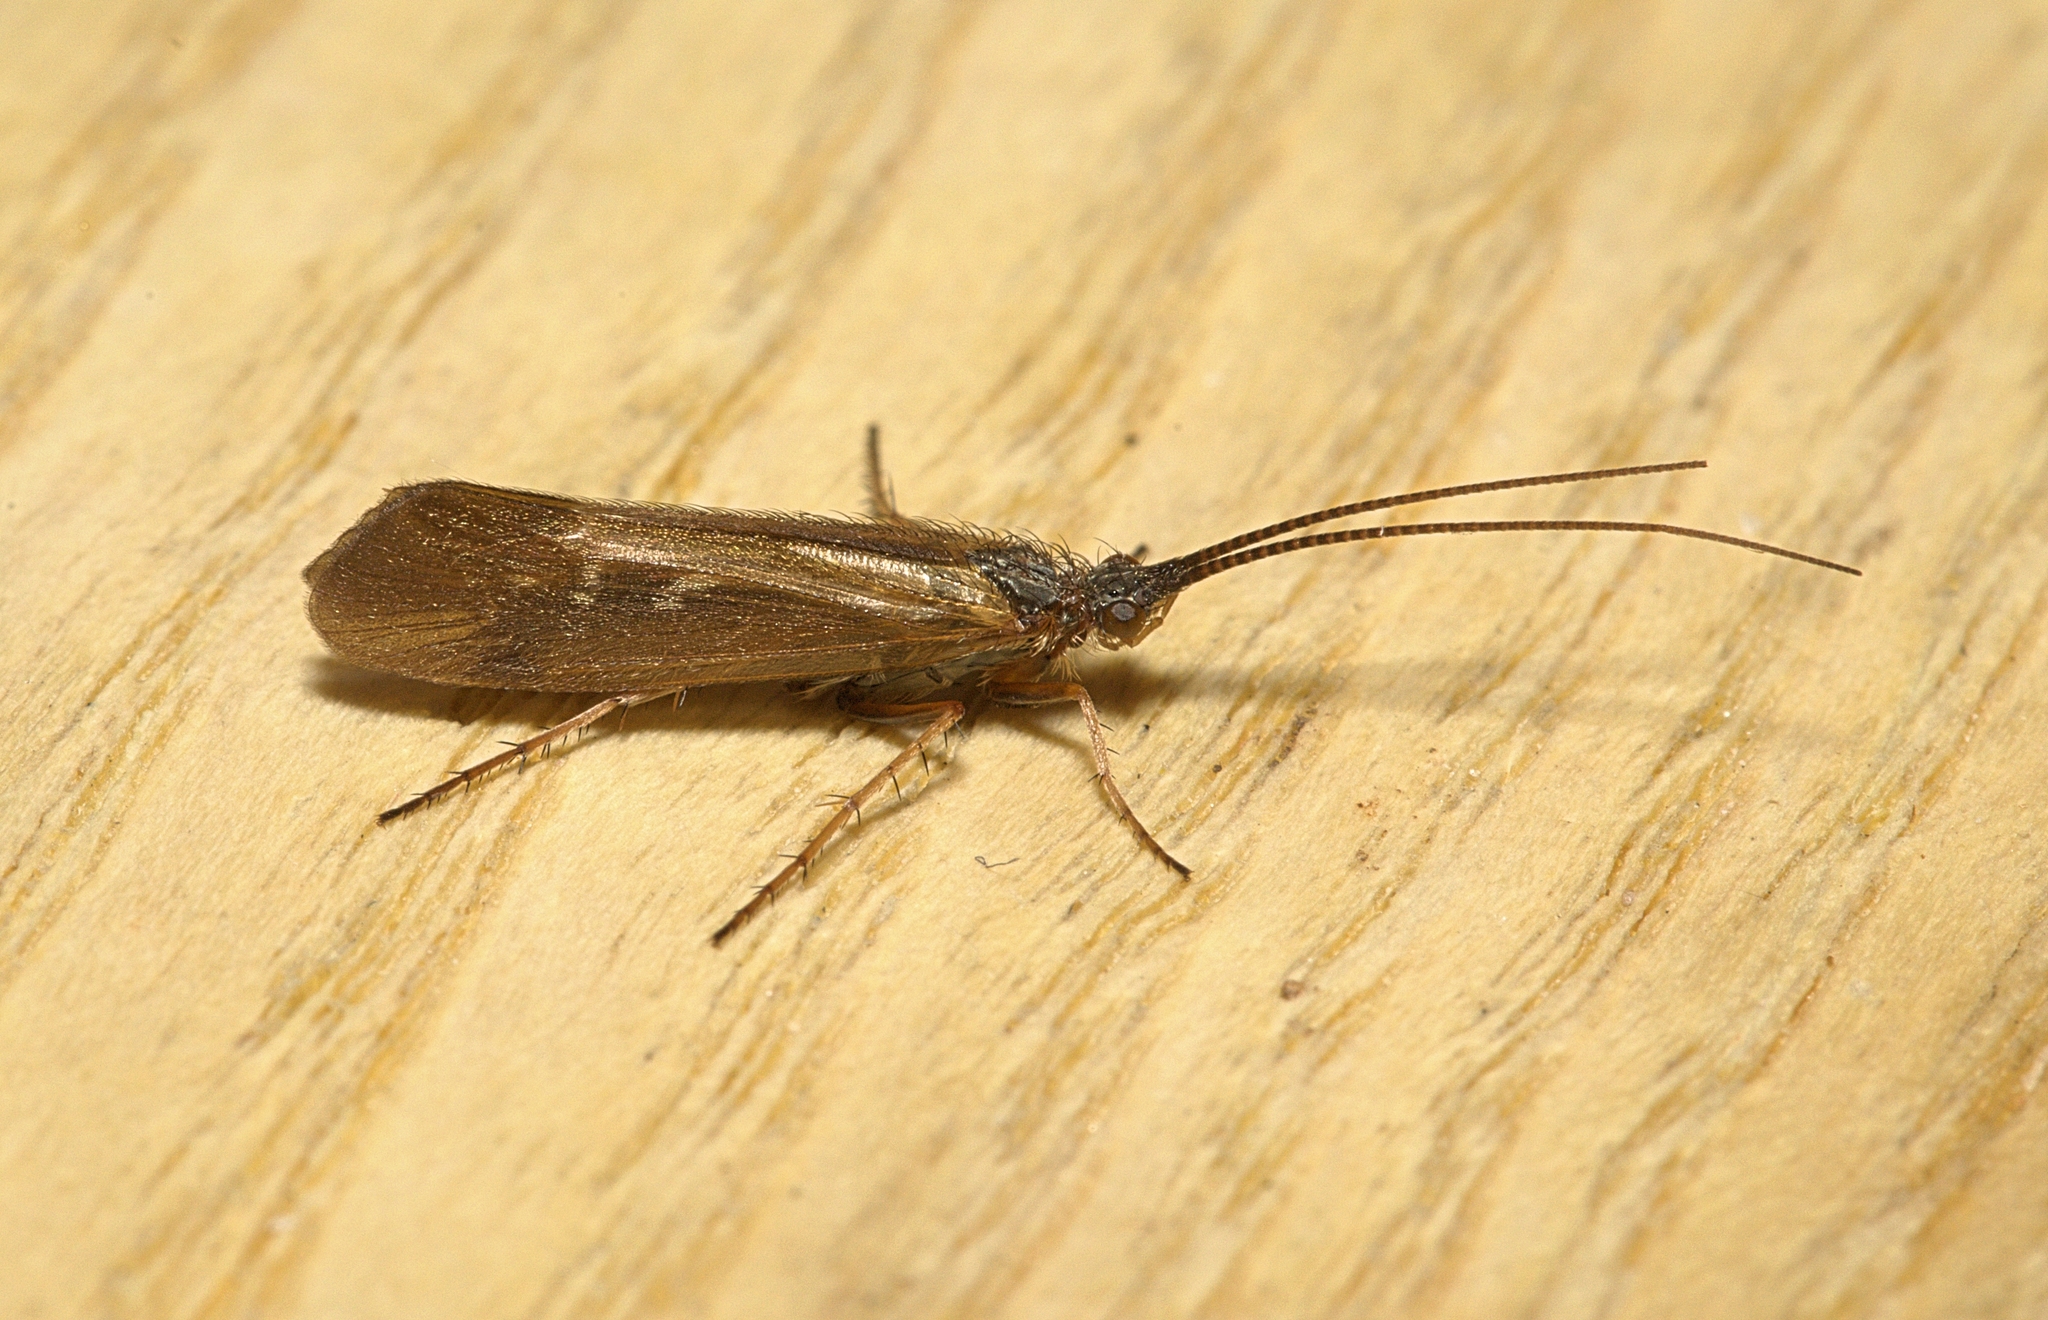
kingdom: Animalia
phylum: Arthropoda
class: Insecta
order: Trichoptera
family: Limnephilidae
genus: Limnephilus
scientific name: Limnephilus auricula
